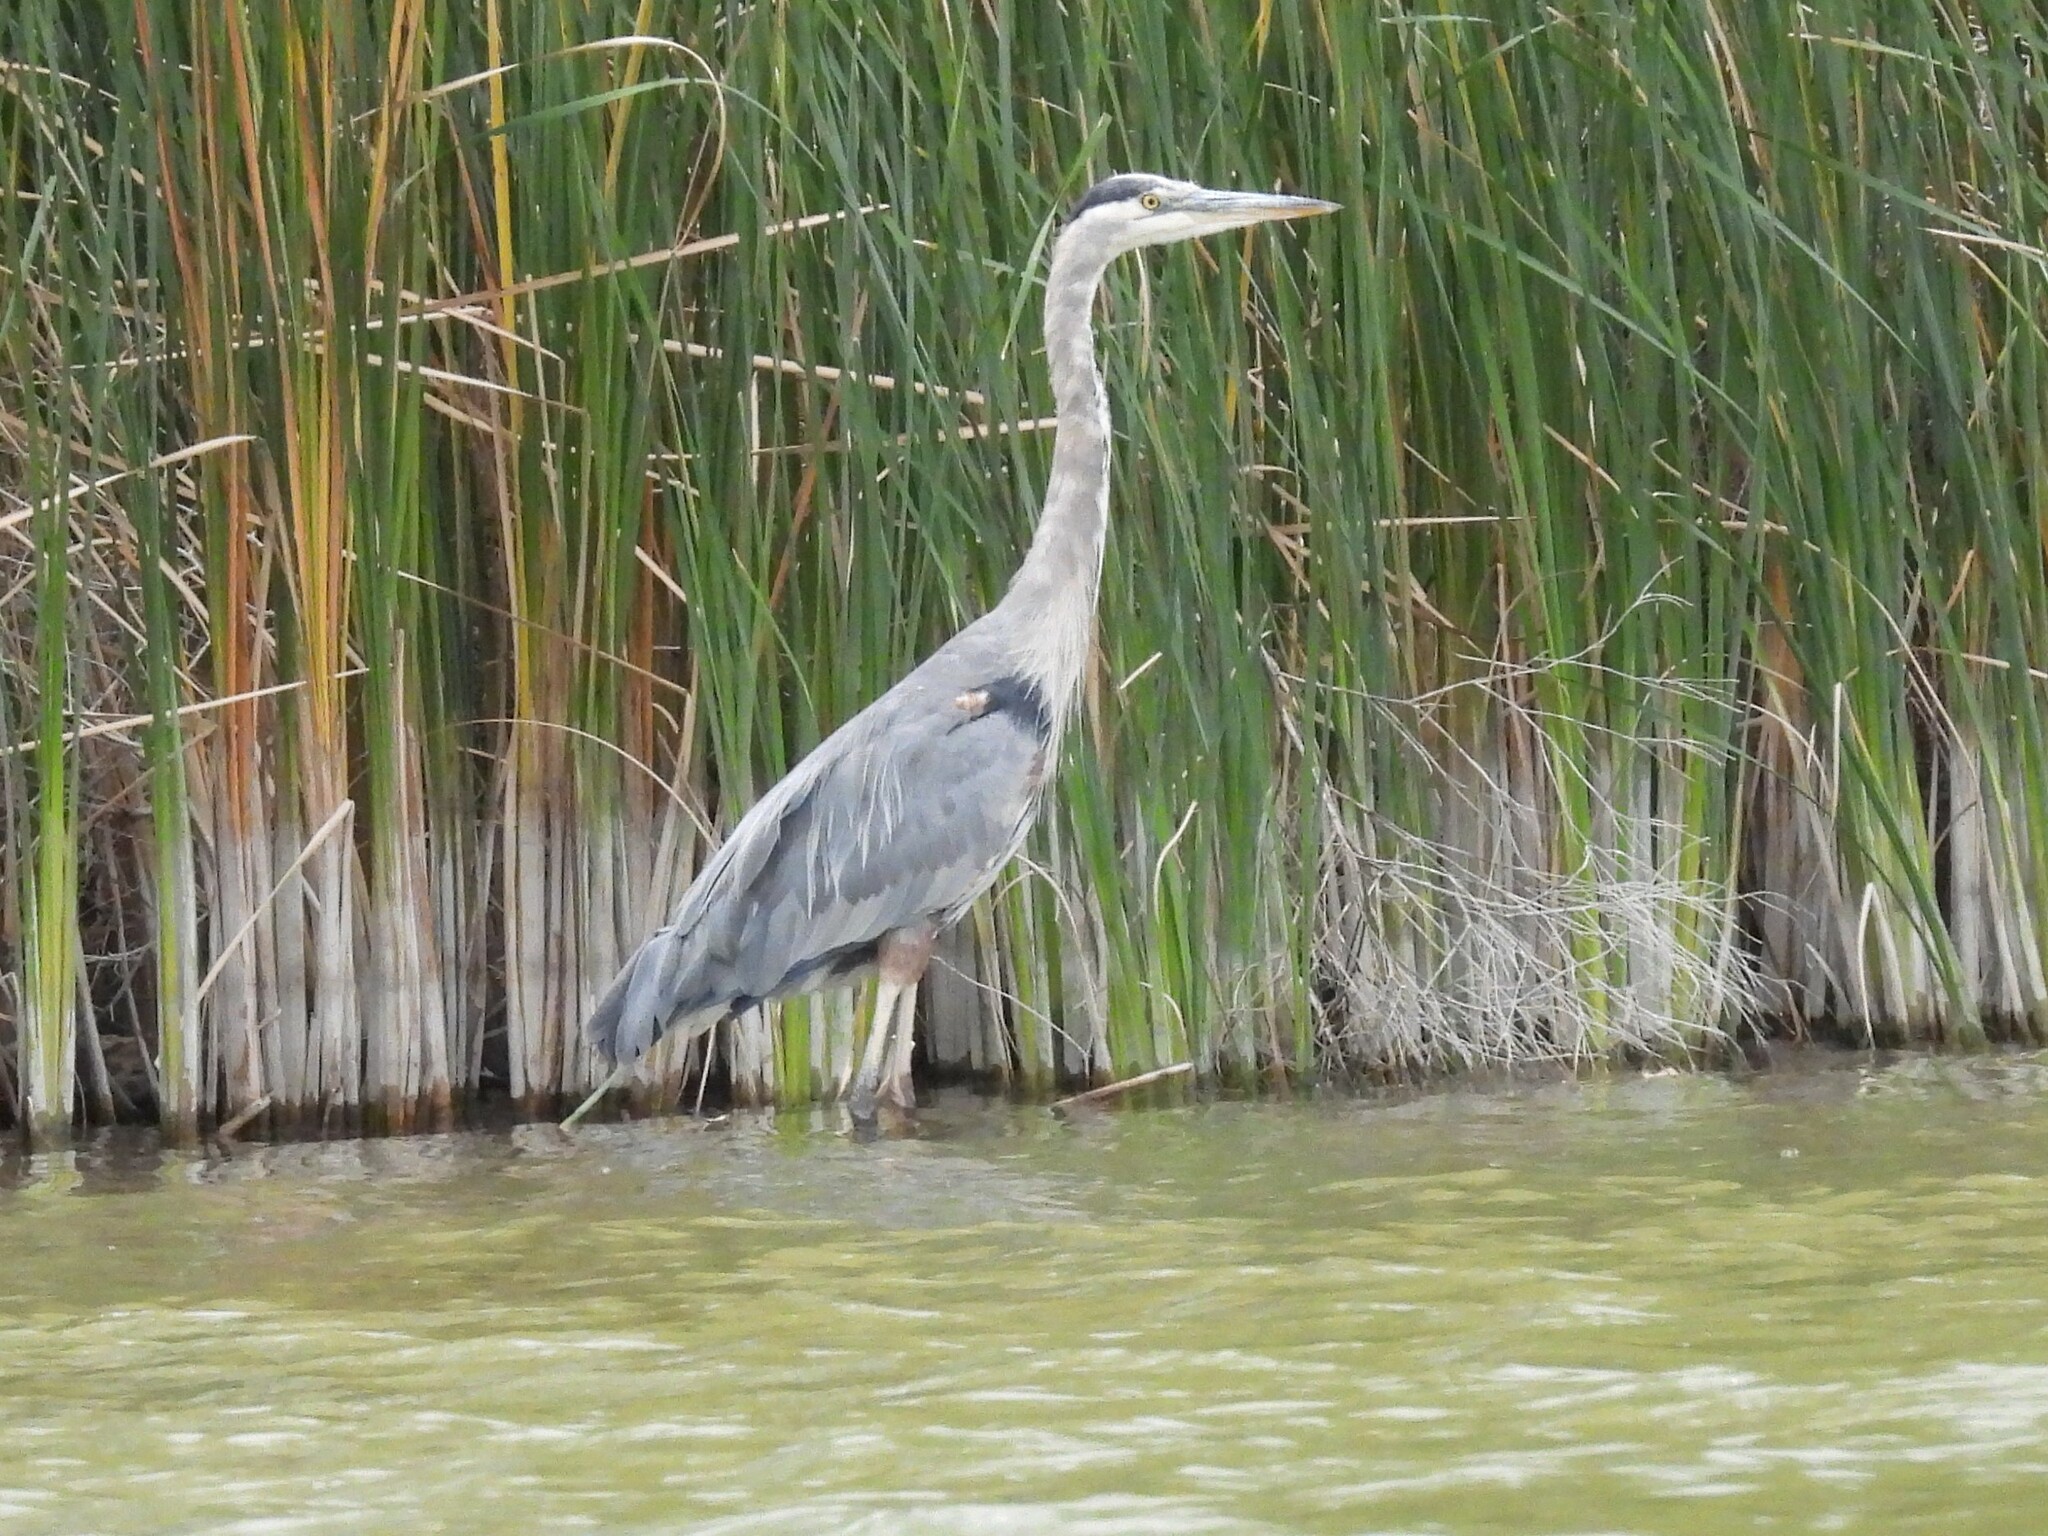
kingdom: Animalia
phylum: Chordata
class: Aves
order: Pelecaniformes
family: Ardeidae
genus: Ardea
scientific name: Ardea herodias
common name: Great blue heron
